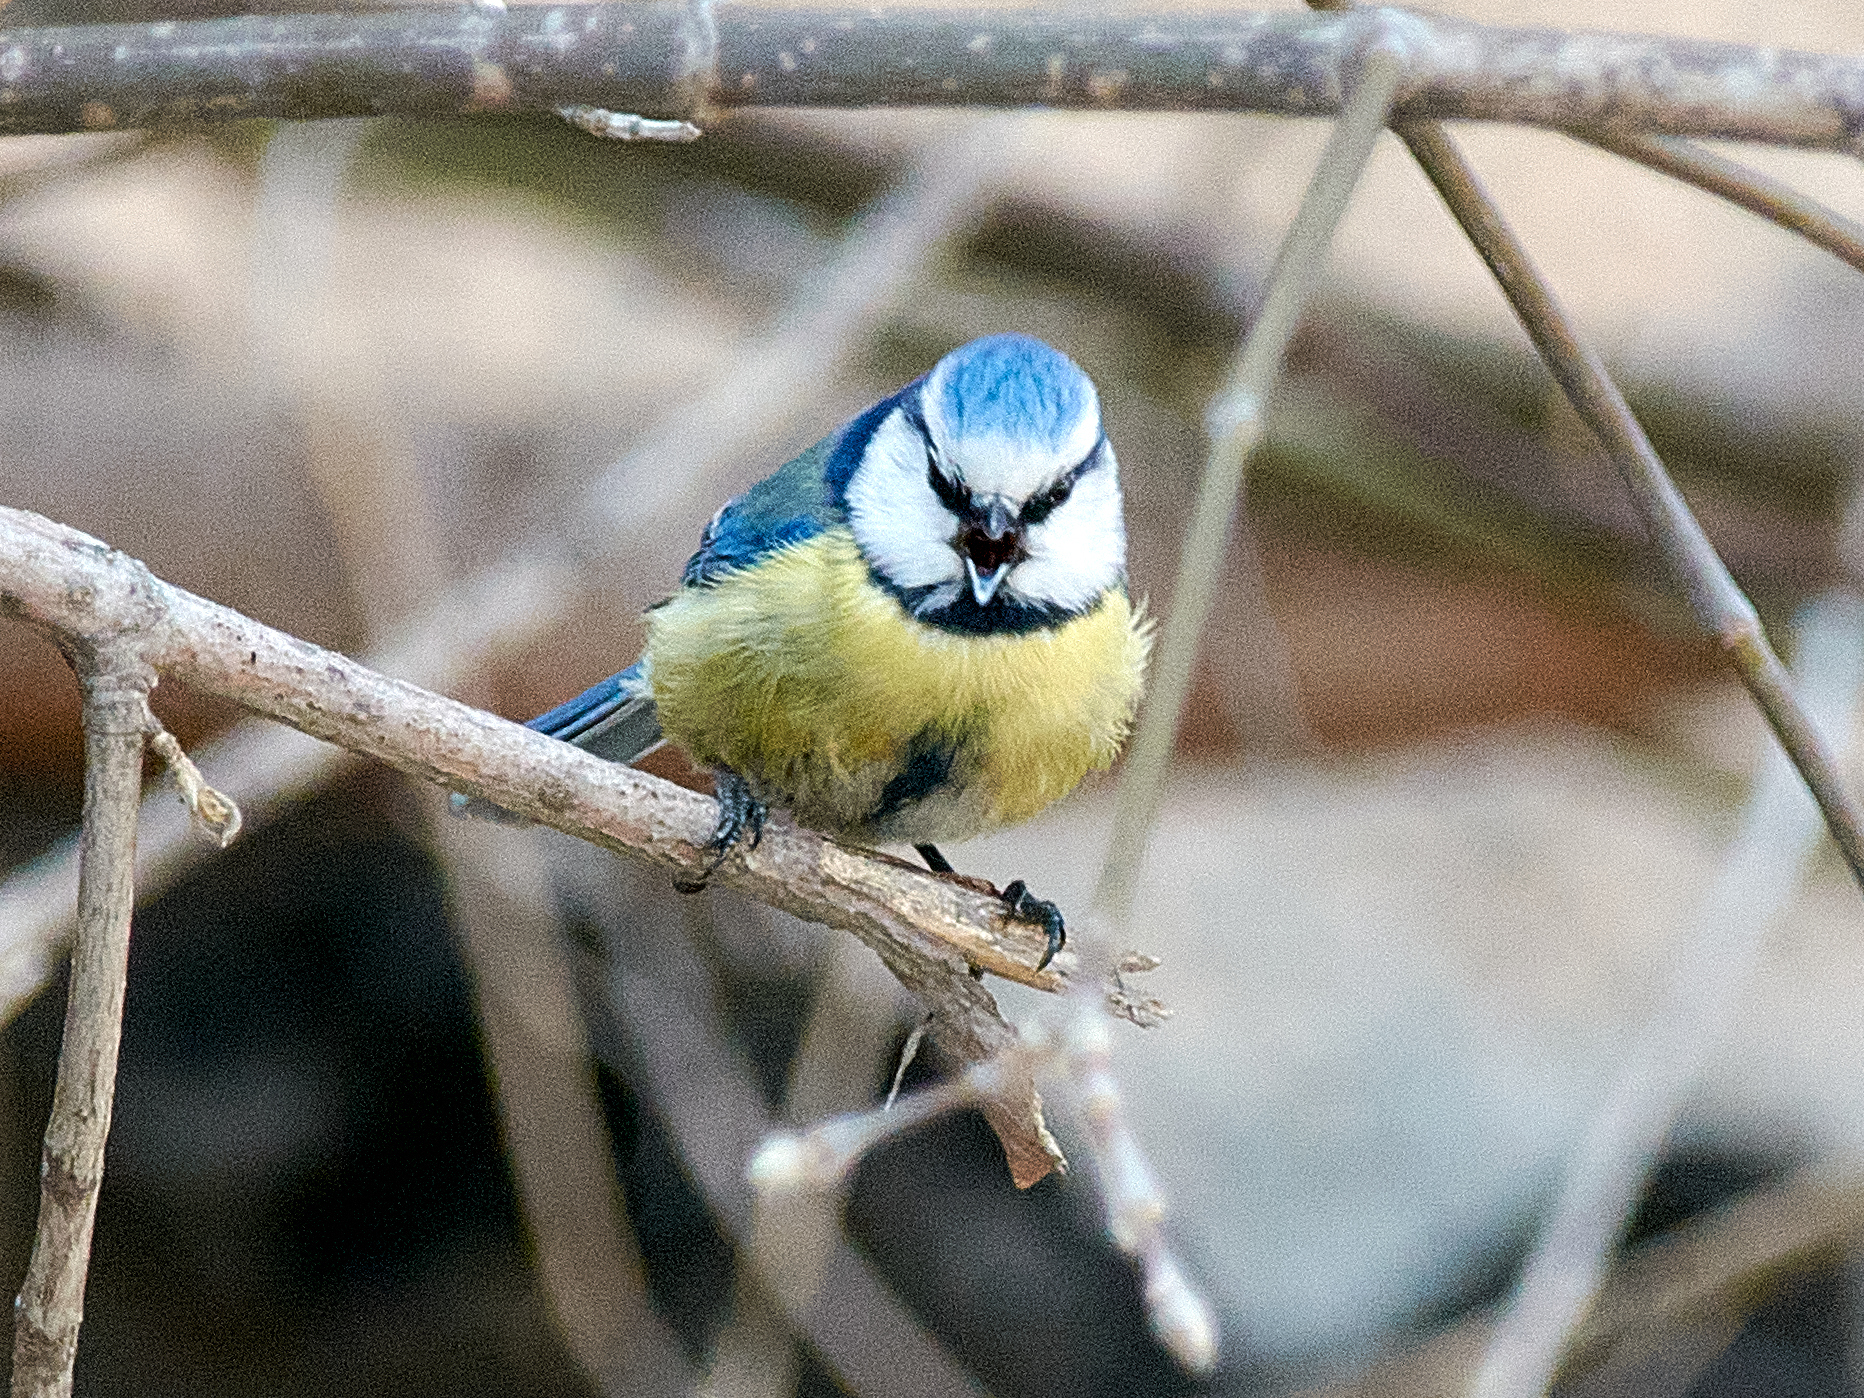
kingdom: Animalia
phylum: Chordata
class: Aves
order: Passeriformes
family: Paridae
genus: Cyanistes
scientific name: Cyanistes caeruleus
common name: Eurasian blue tit
